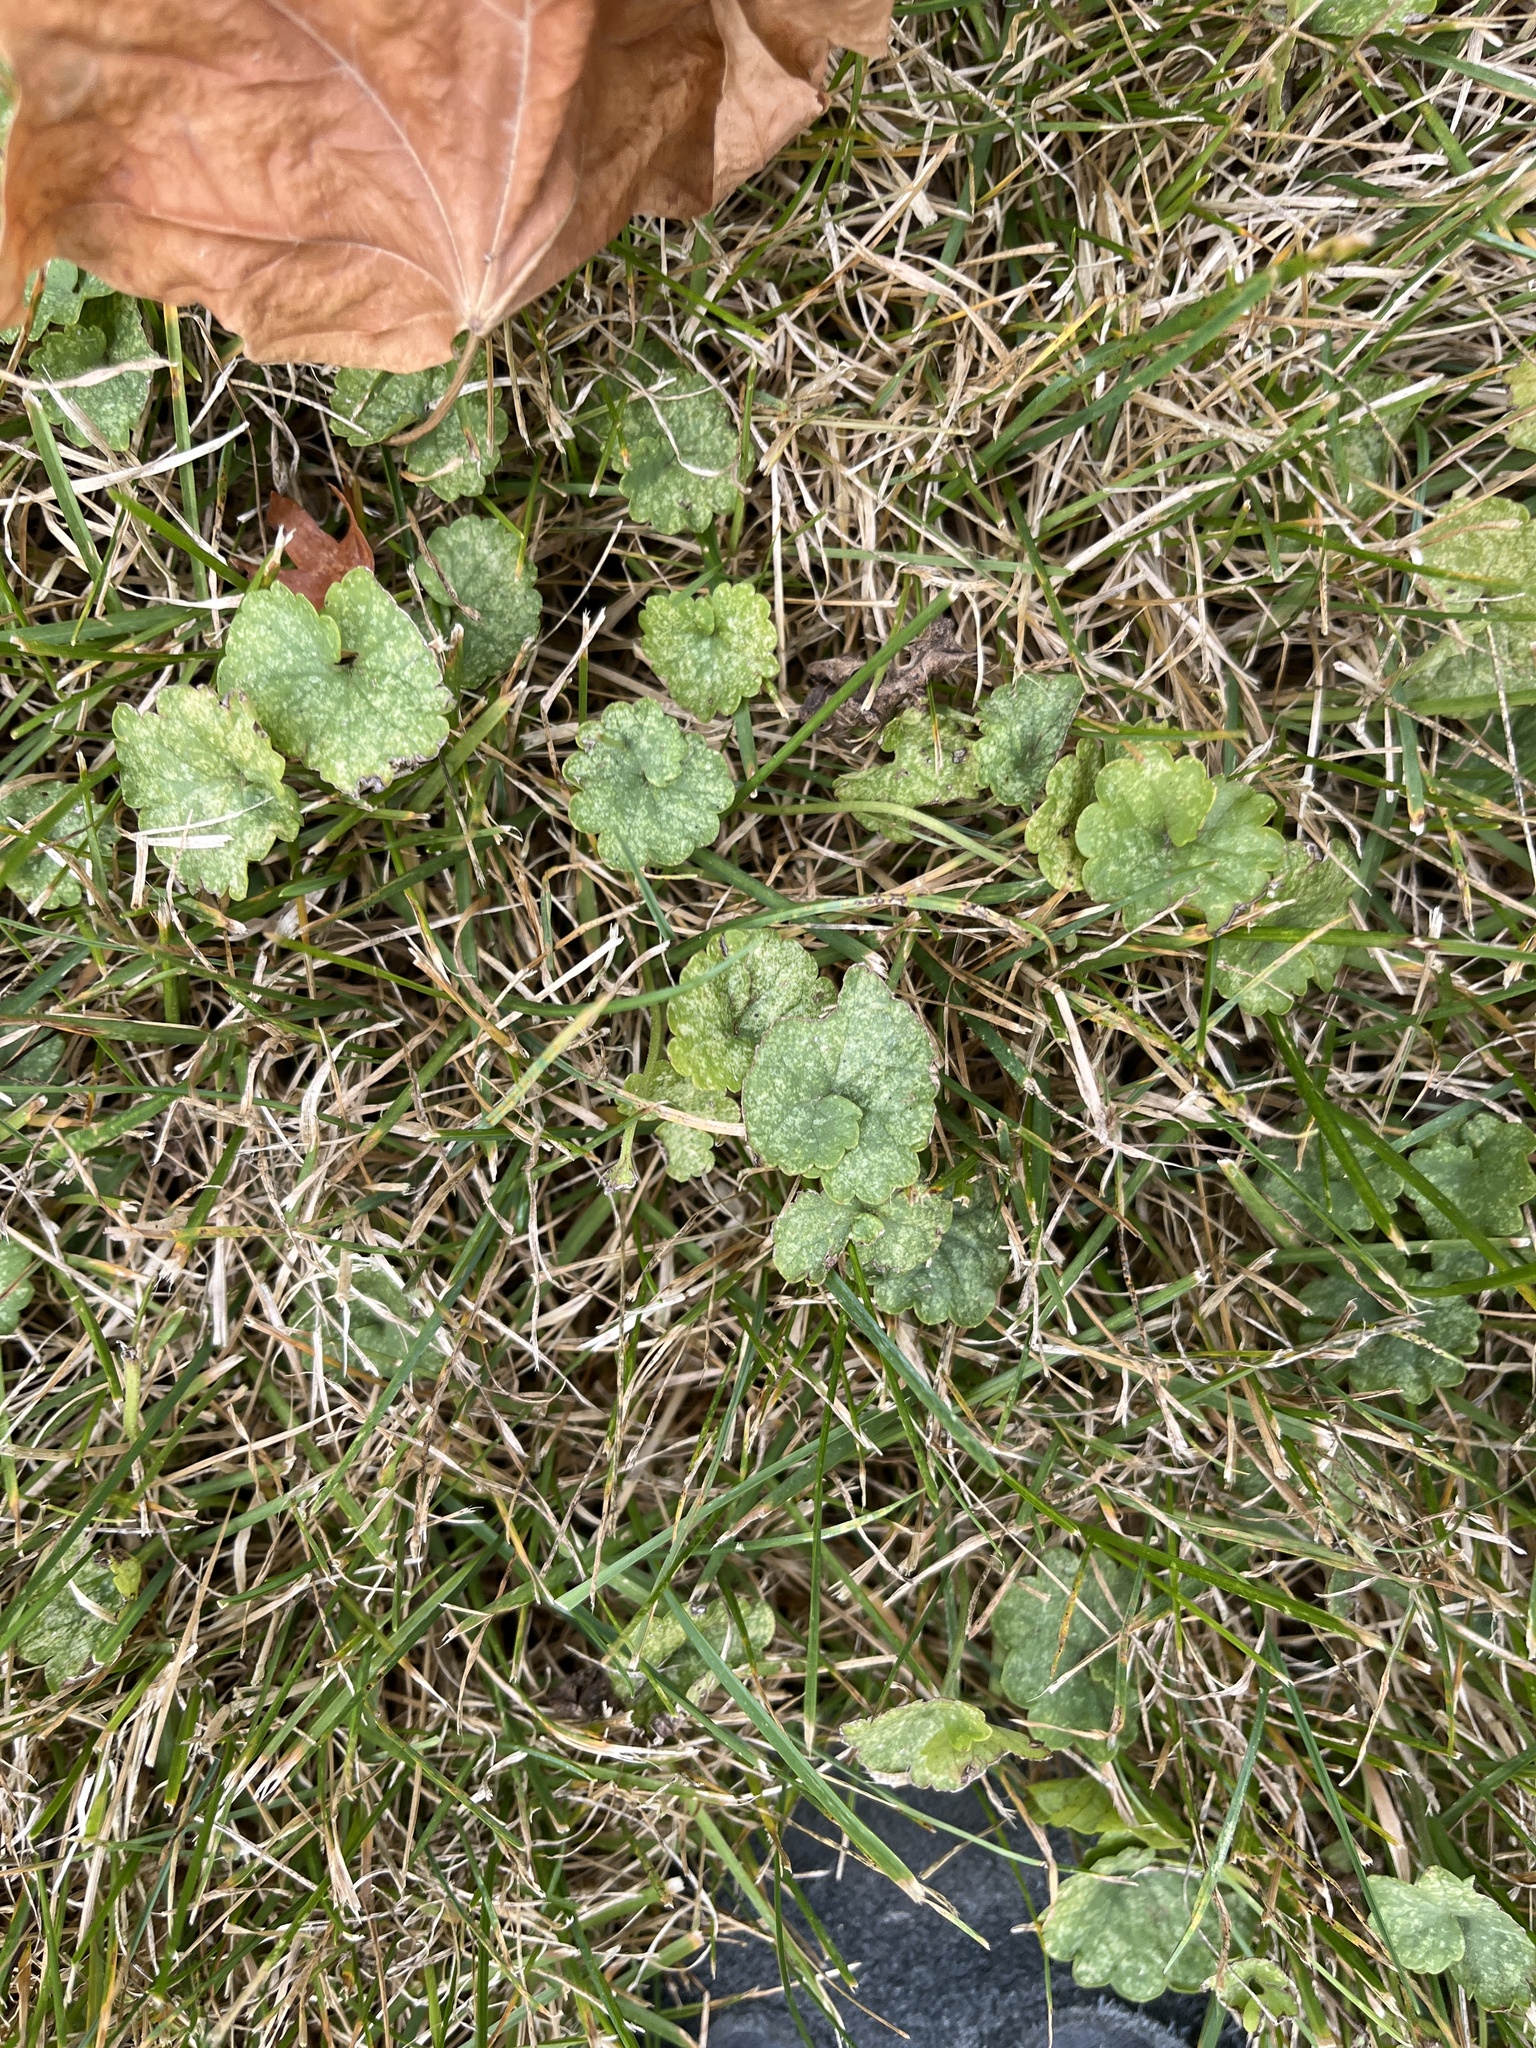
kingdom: Plantae
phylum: Tracheophyta
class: Magnoliopsida
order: Lamiales
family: Lamiaceae
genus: Glechoma
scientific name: Glechoma hederacea
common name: Ground ivy
